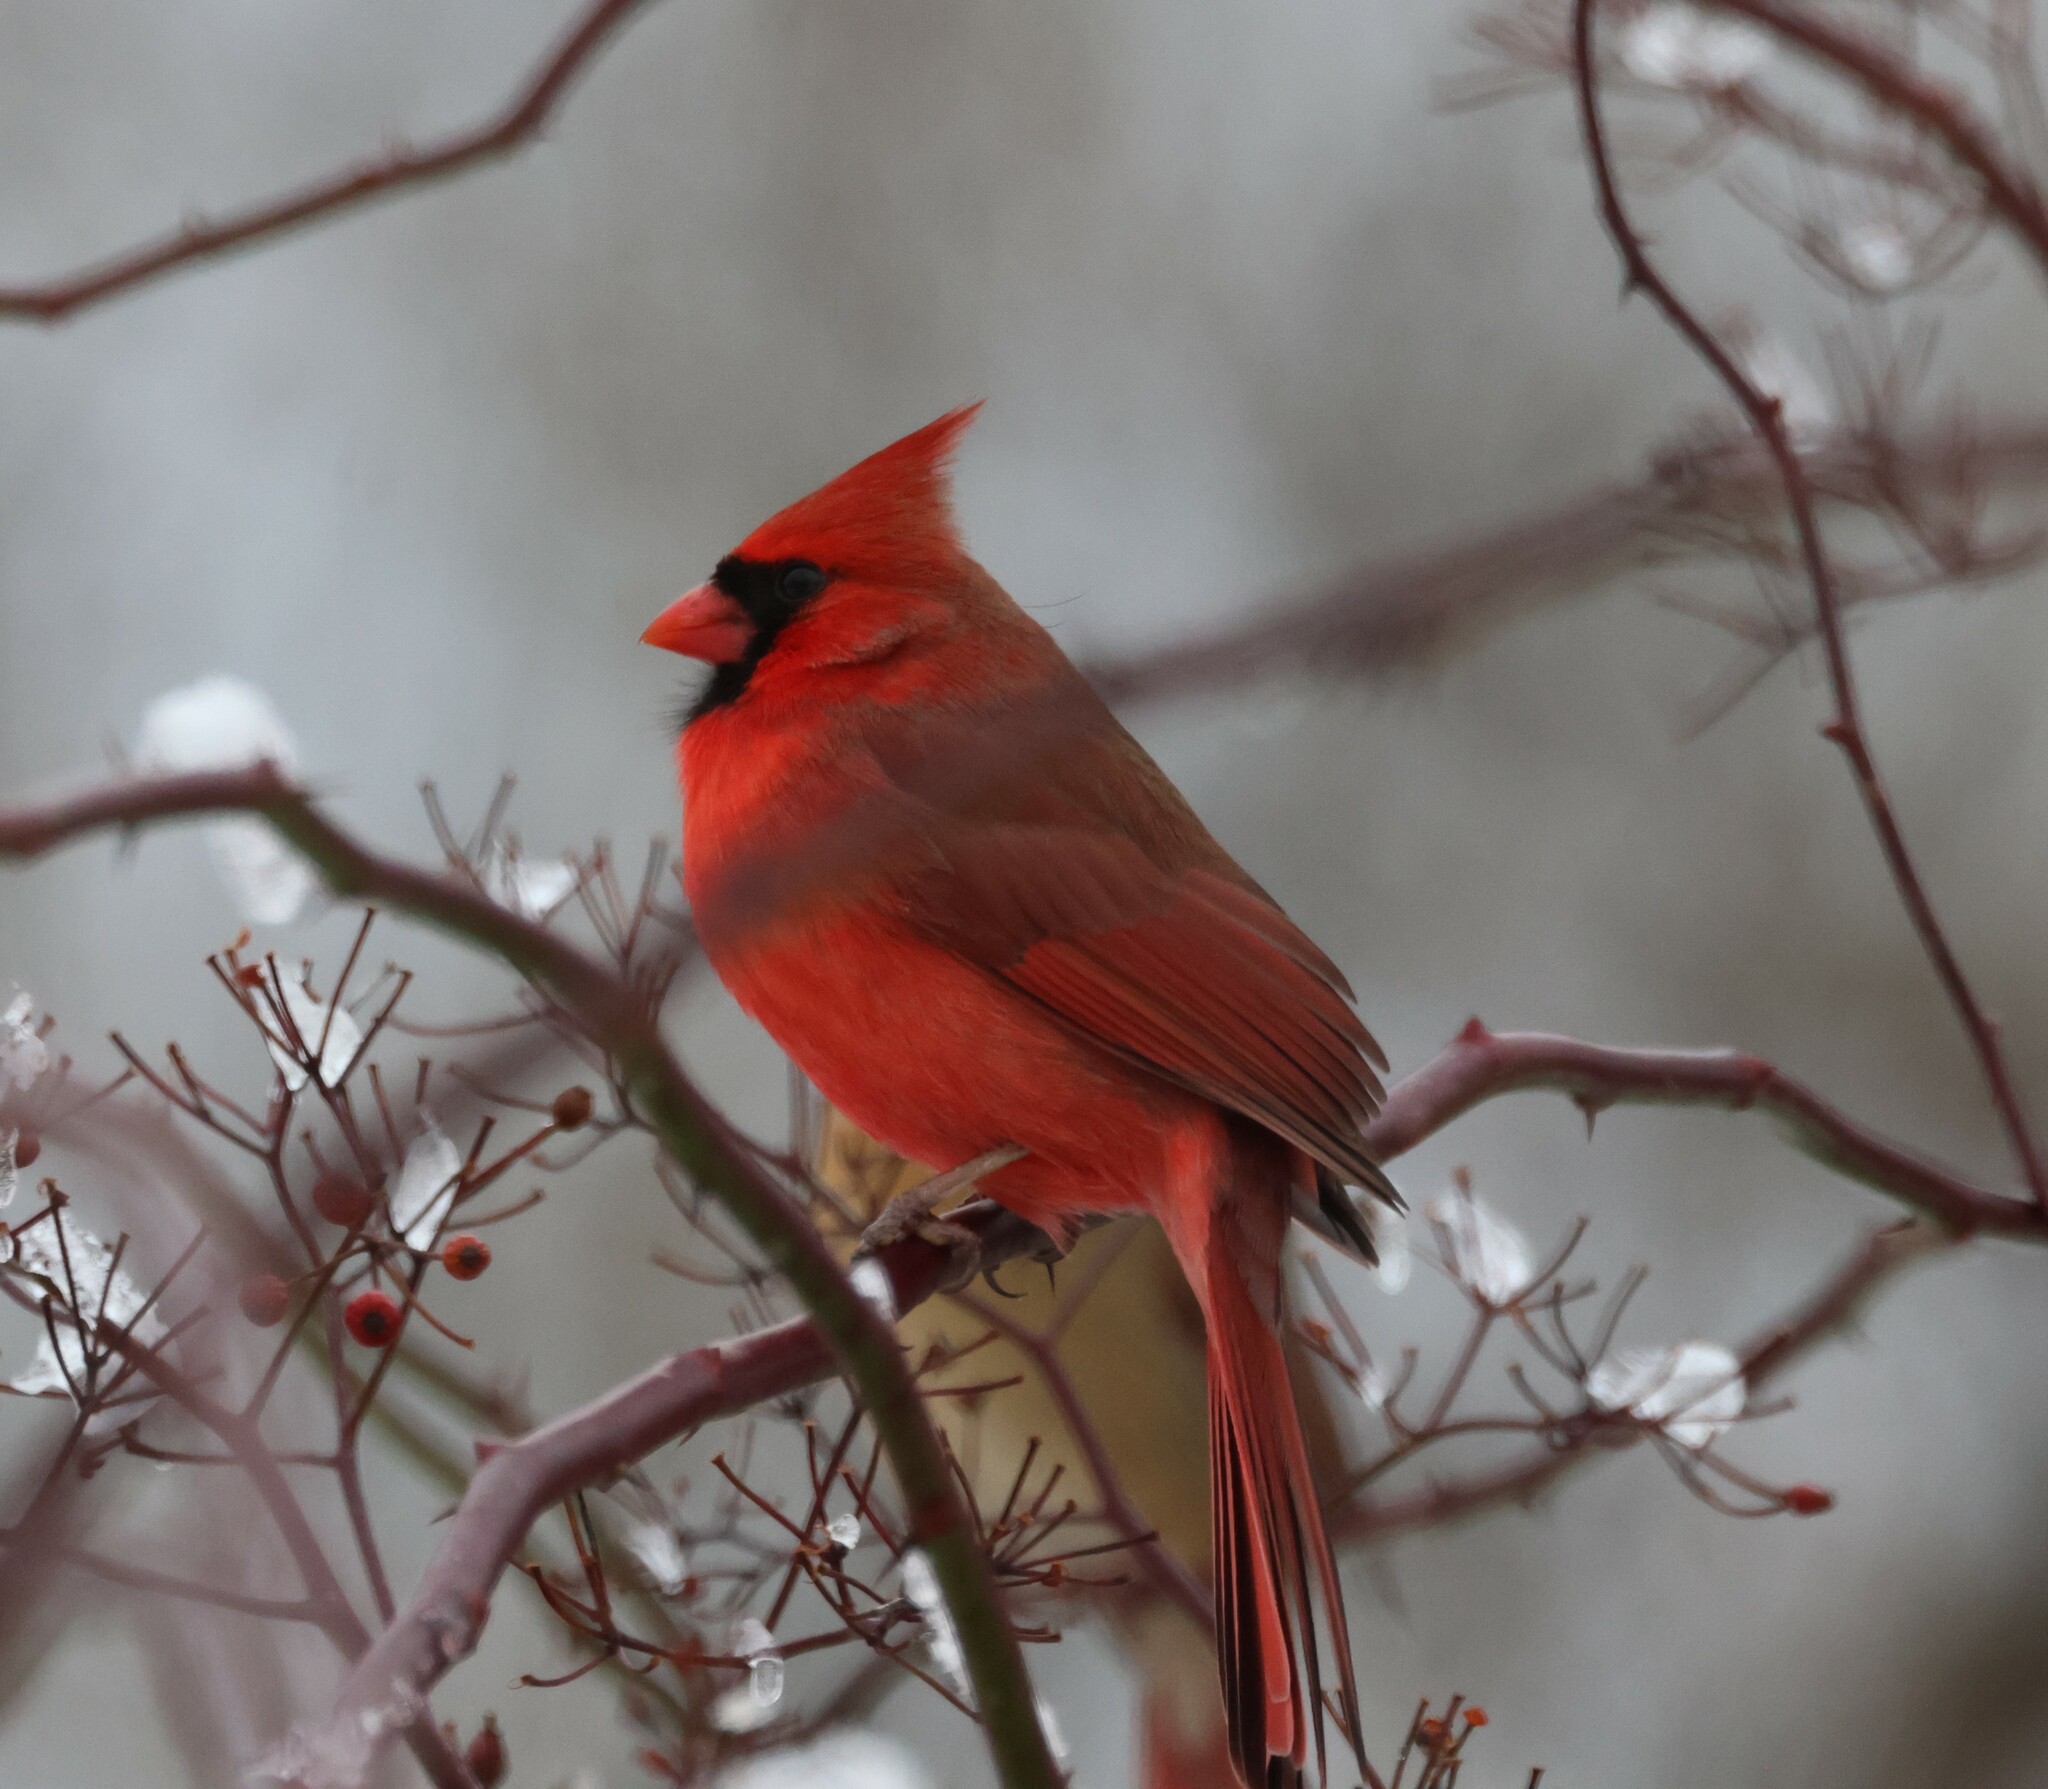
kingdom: Animalia
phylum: Chordata
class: Aves
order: Passeriformes
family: Cardinalidae
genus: Cardinalis
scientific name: Cardinalis cardinalis
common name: Northern cardinal
